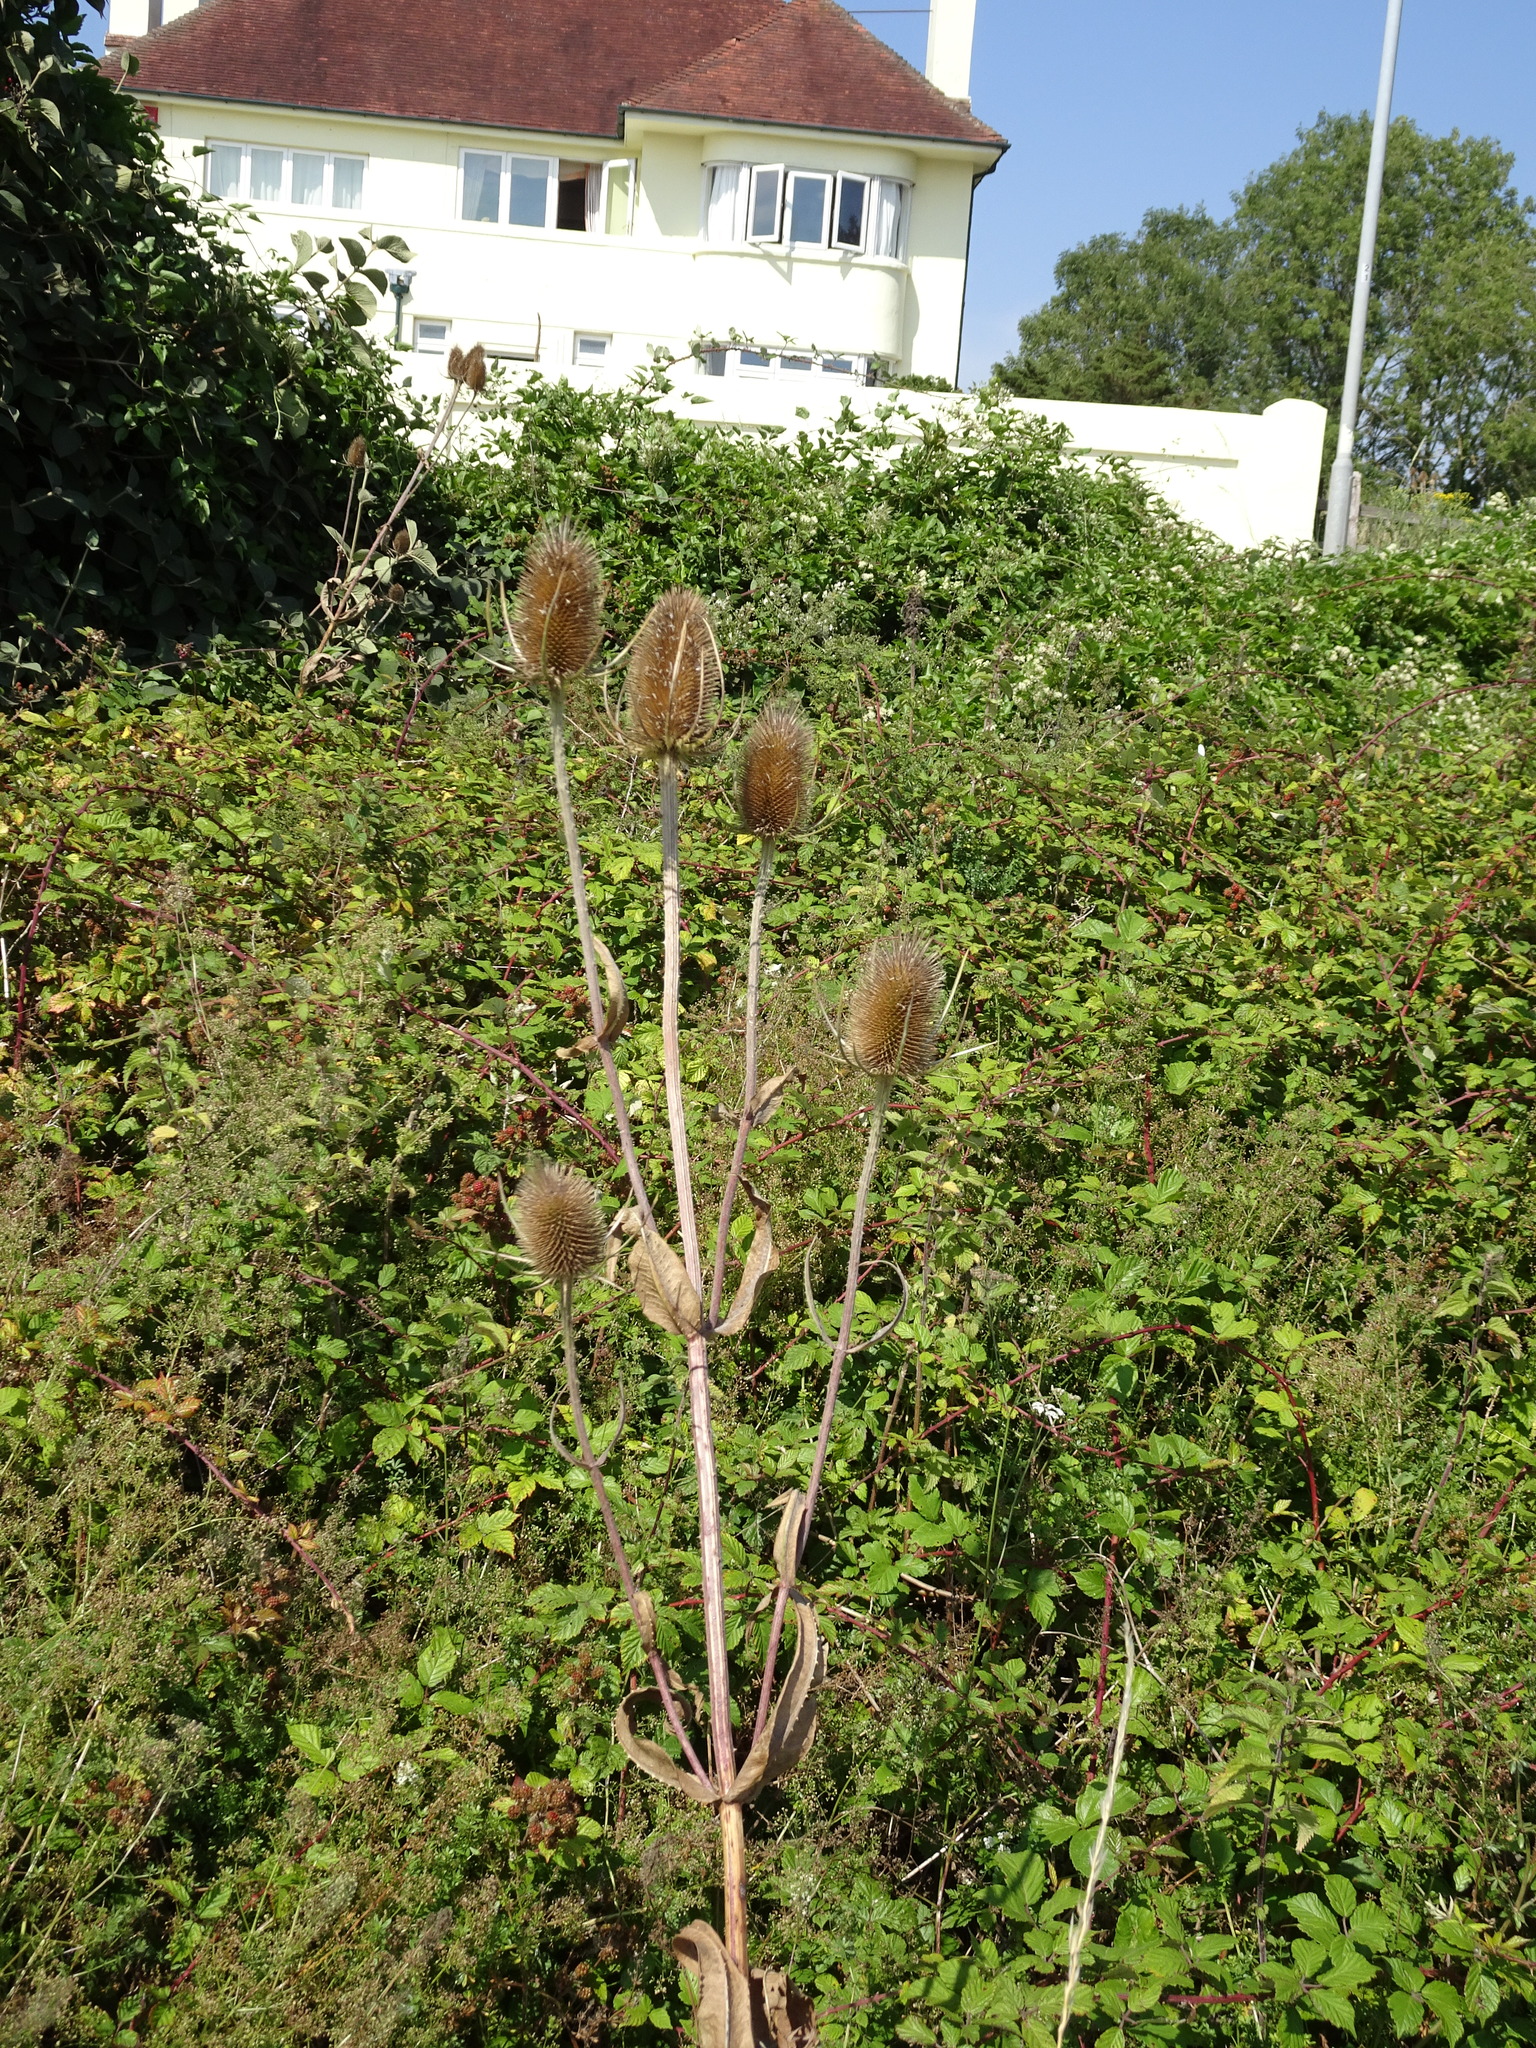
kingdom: Plantae
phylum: Tracheophyta
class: Magnoliopsida
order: Dipsacales
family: Caprifoliaceae
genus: Dipsacus
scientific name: Dipsacus fullonum
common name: Teasel
